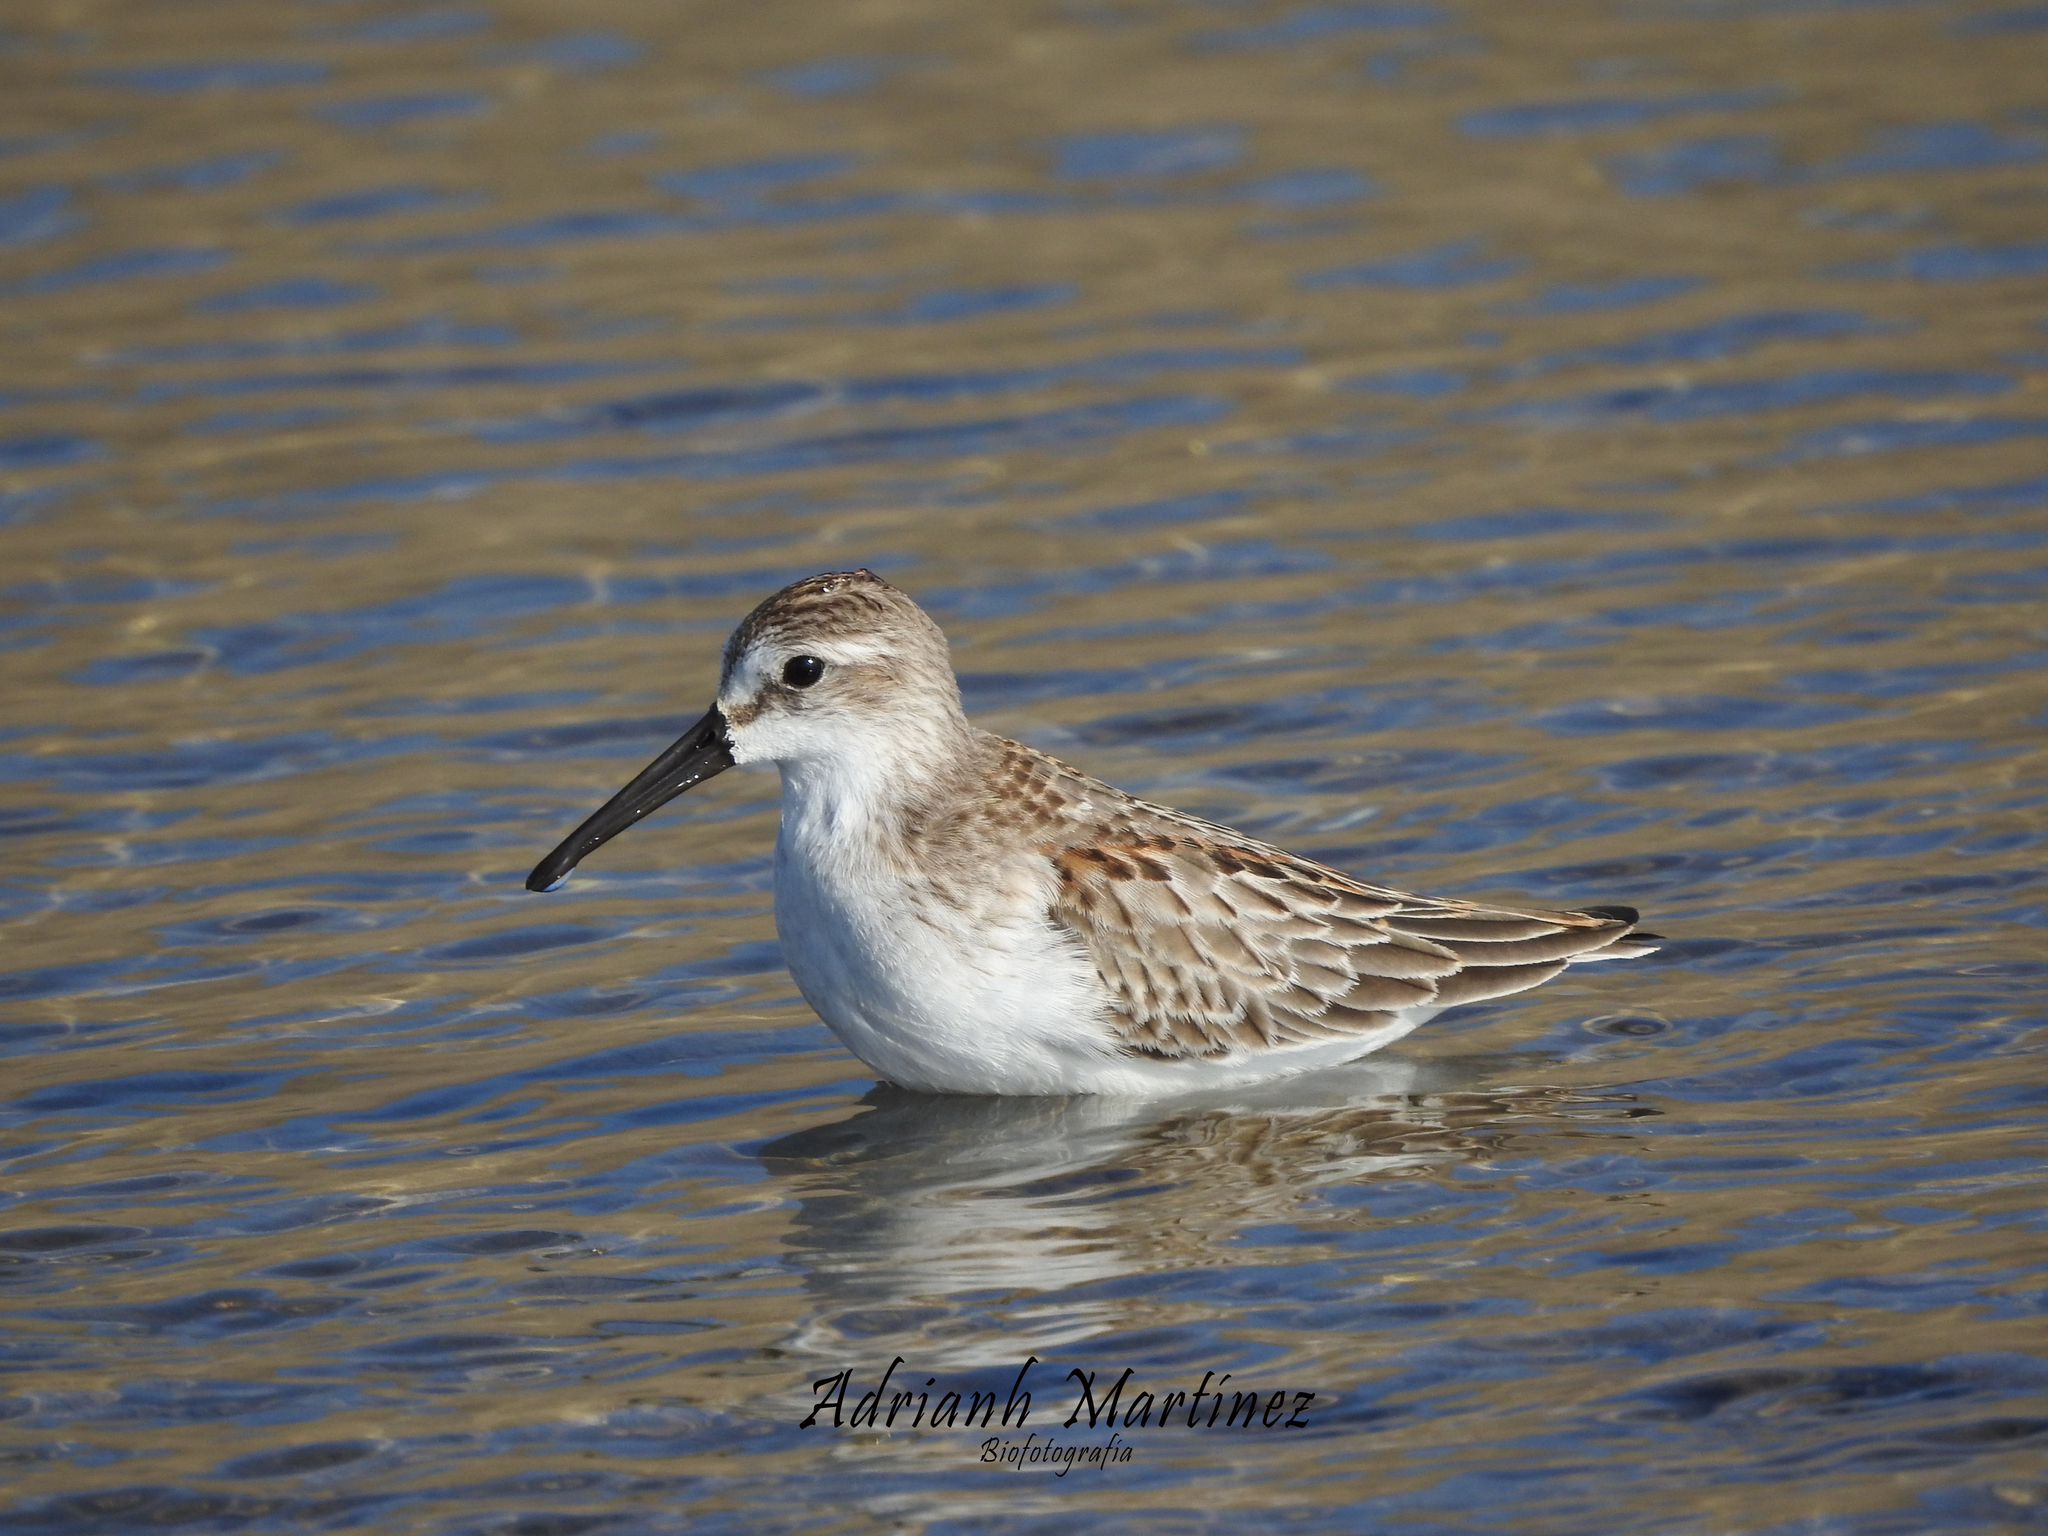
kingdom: Animalia
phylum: Chordata
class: Aves
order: Charadriiformes
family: Scolopacidae
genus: Calidris
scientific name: Calidris mauri
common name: Western sandpiper
